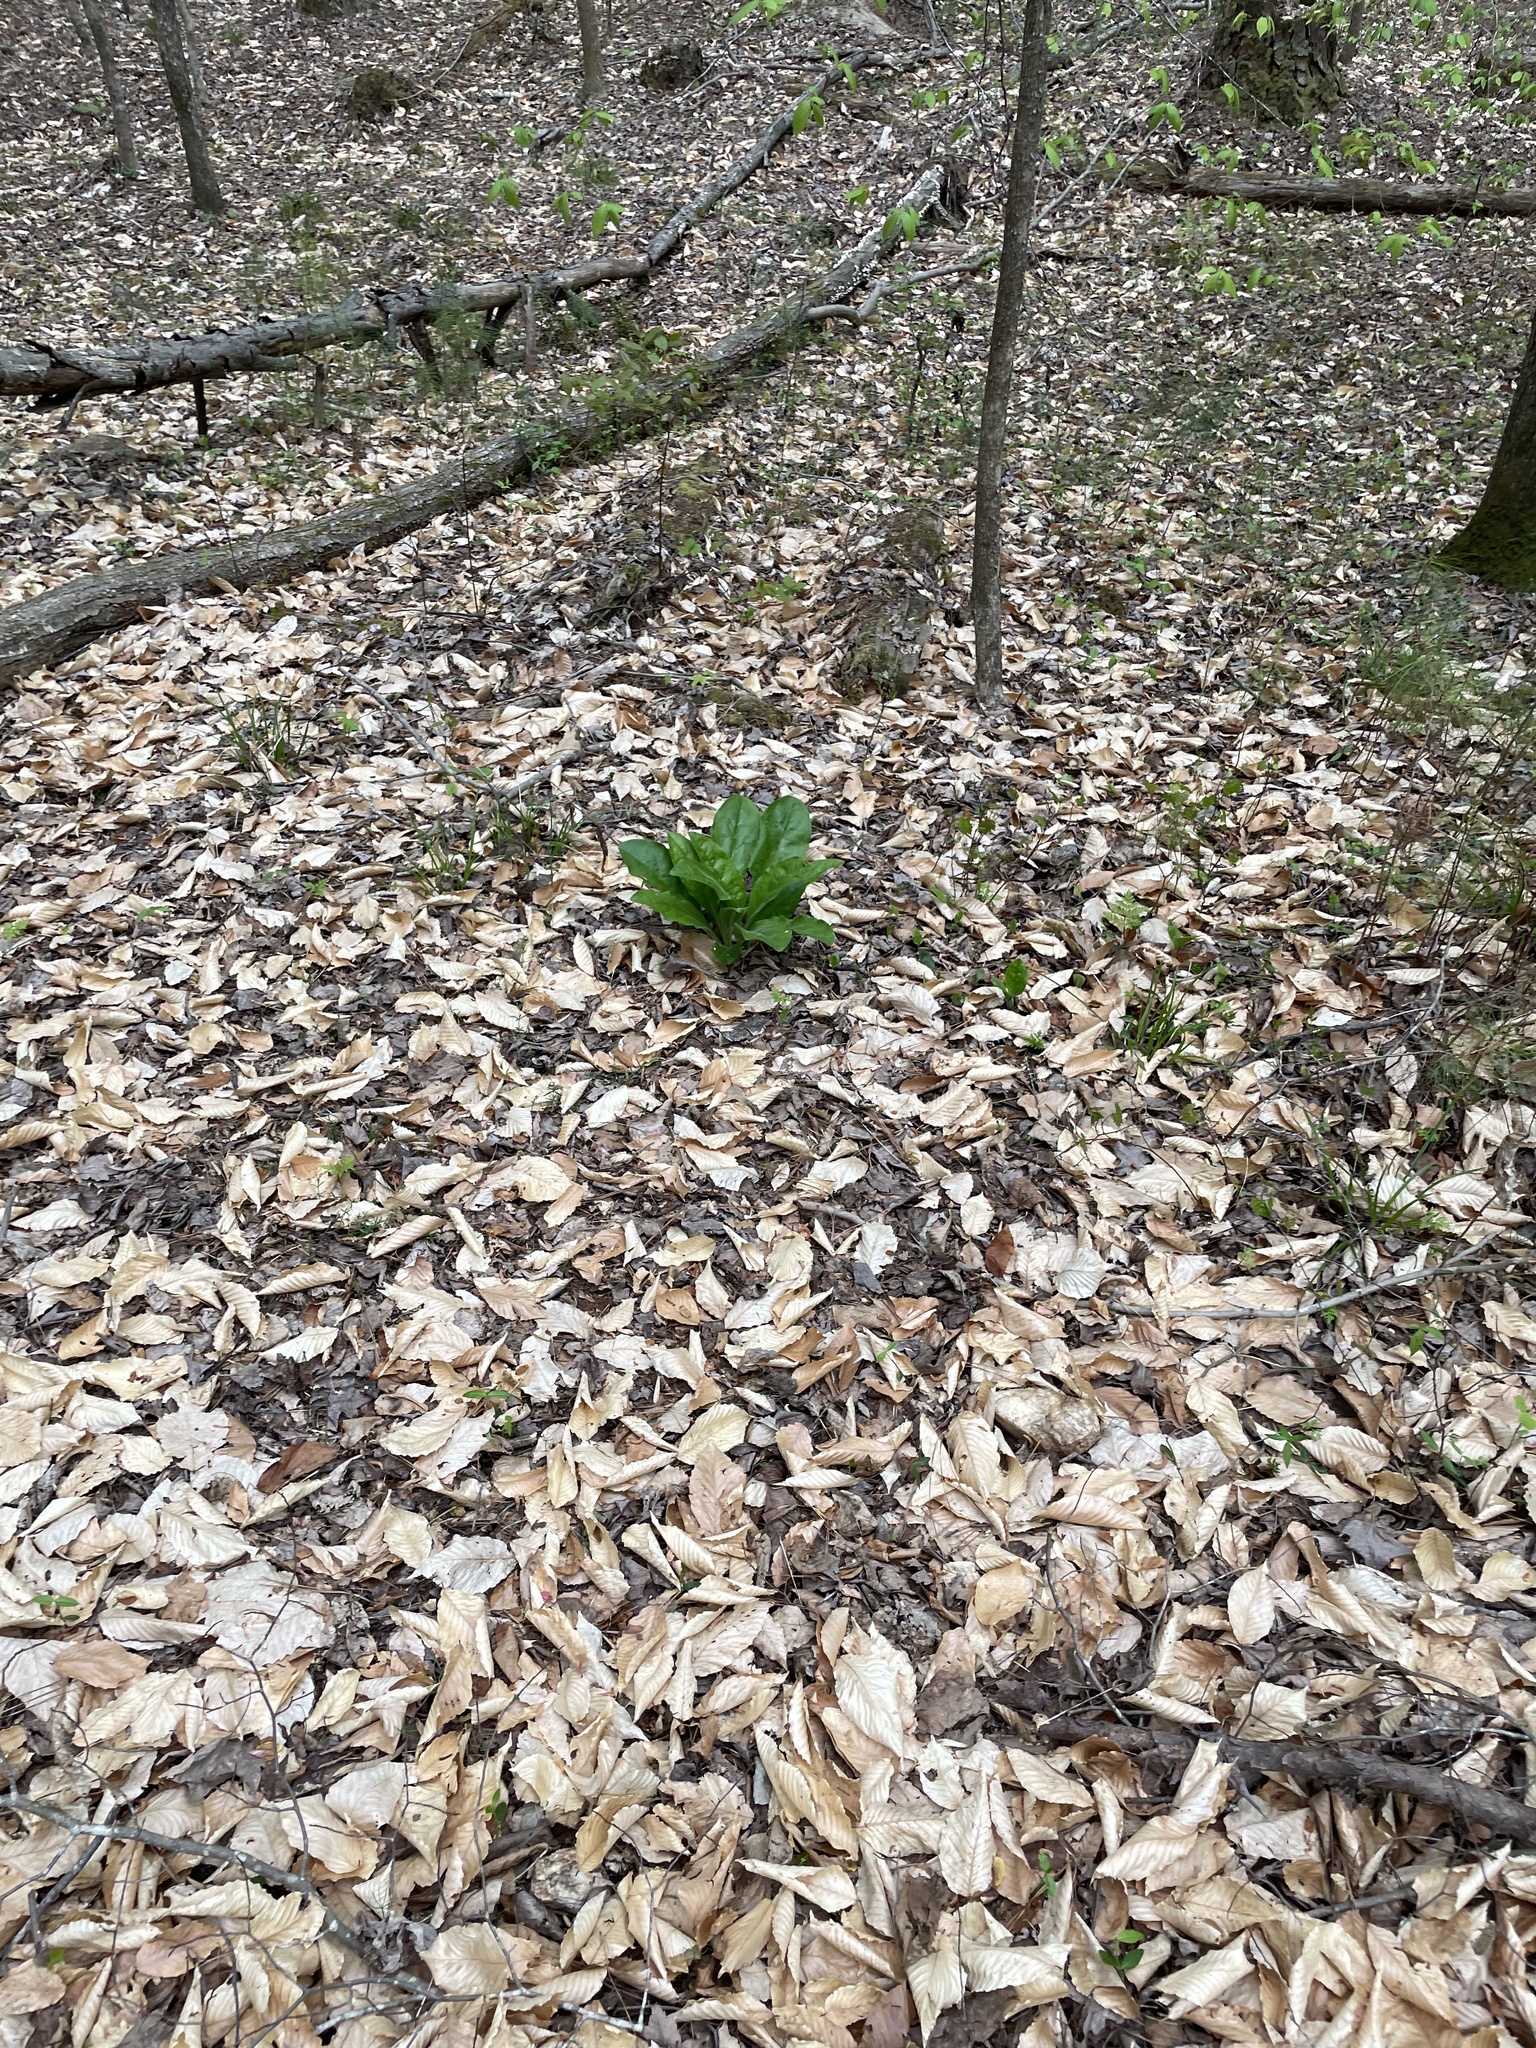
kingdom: Plantae
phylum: Tracheophyta
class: Magnoliopsida
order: Boraginales
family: Boraginaceae
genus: Andersonglossum
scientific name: Andersonglossum virginianum
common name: Wild comfrey
